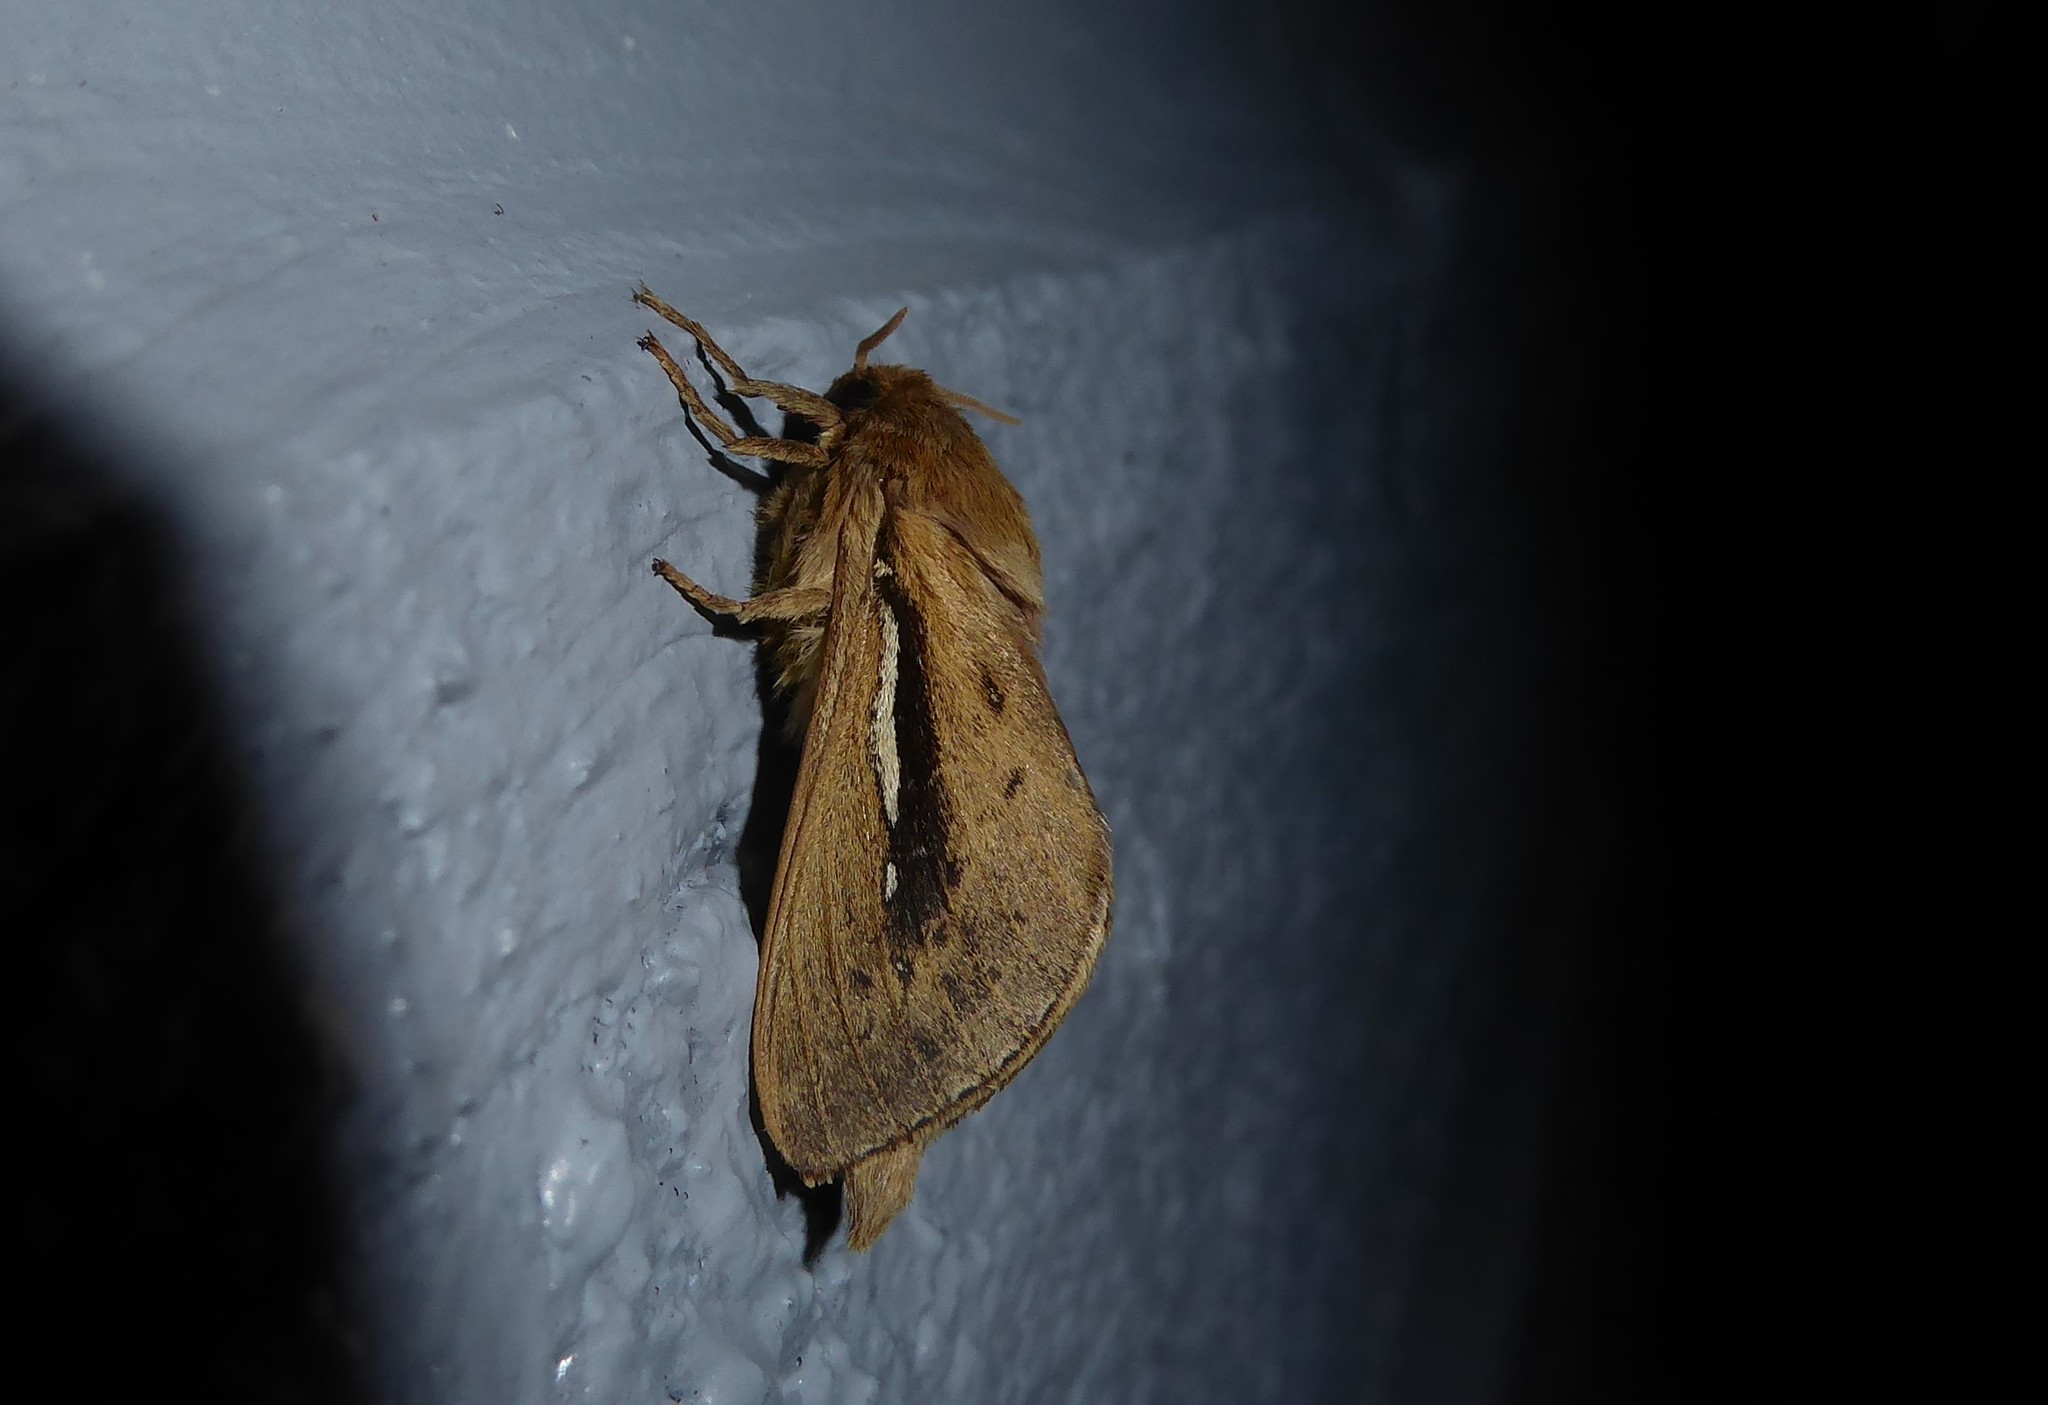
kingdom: Animalia
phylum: Arthropoda
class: Insecta
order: Lepidoptera
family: Hepialidae
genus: Wiseana
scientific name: Wiseana umbraculatus
